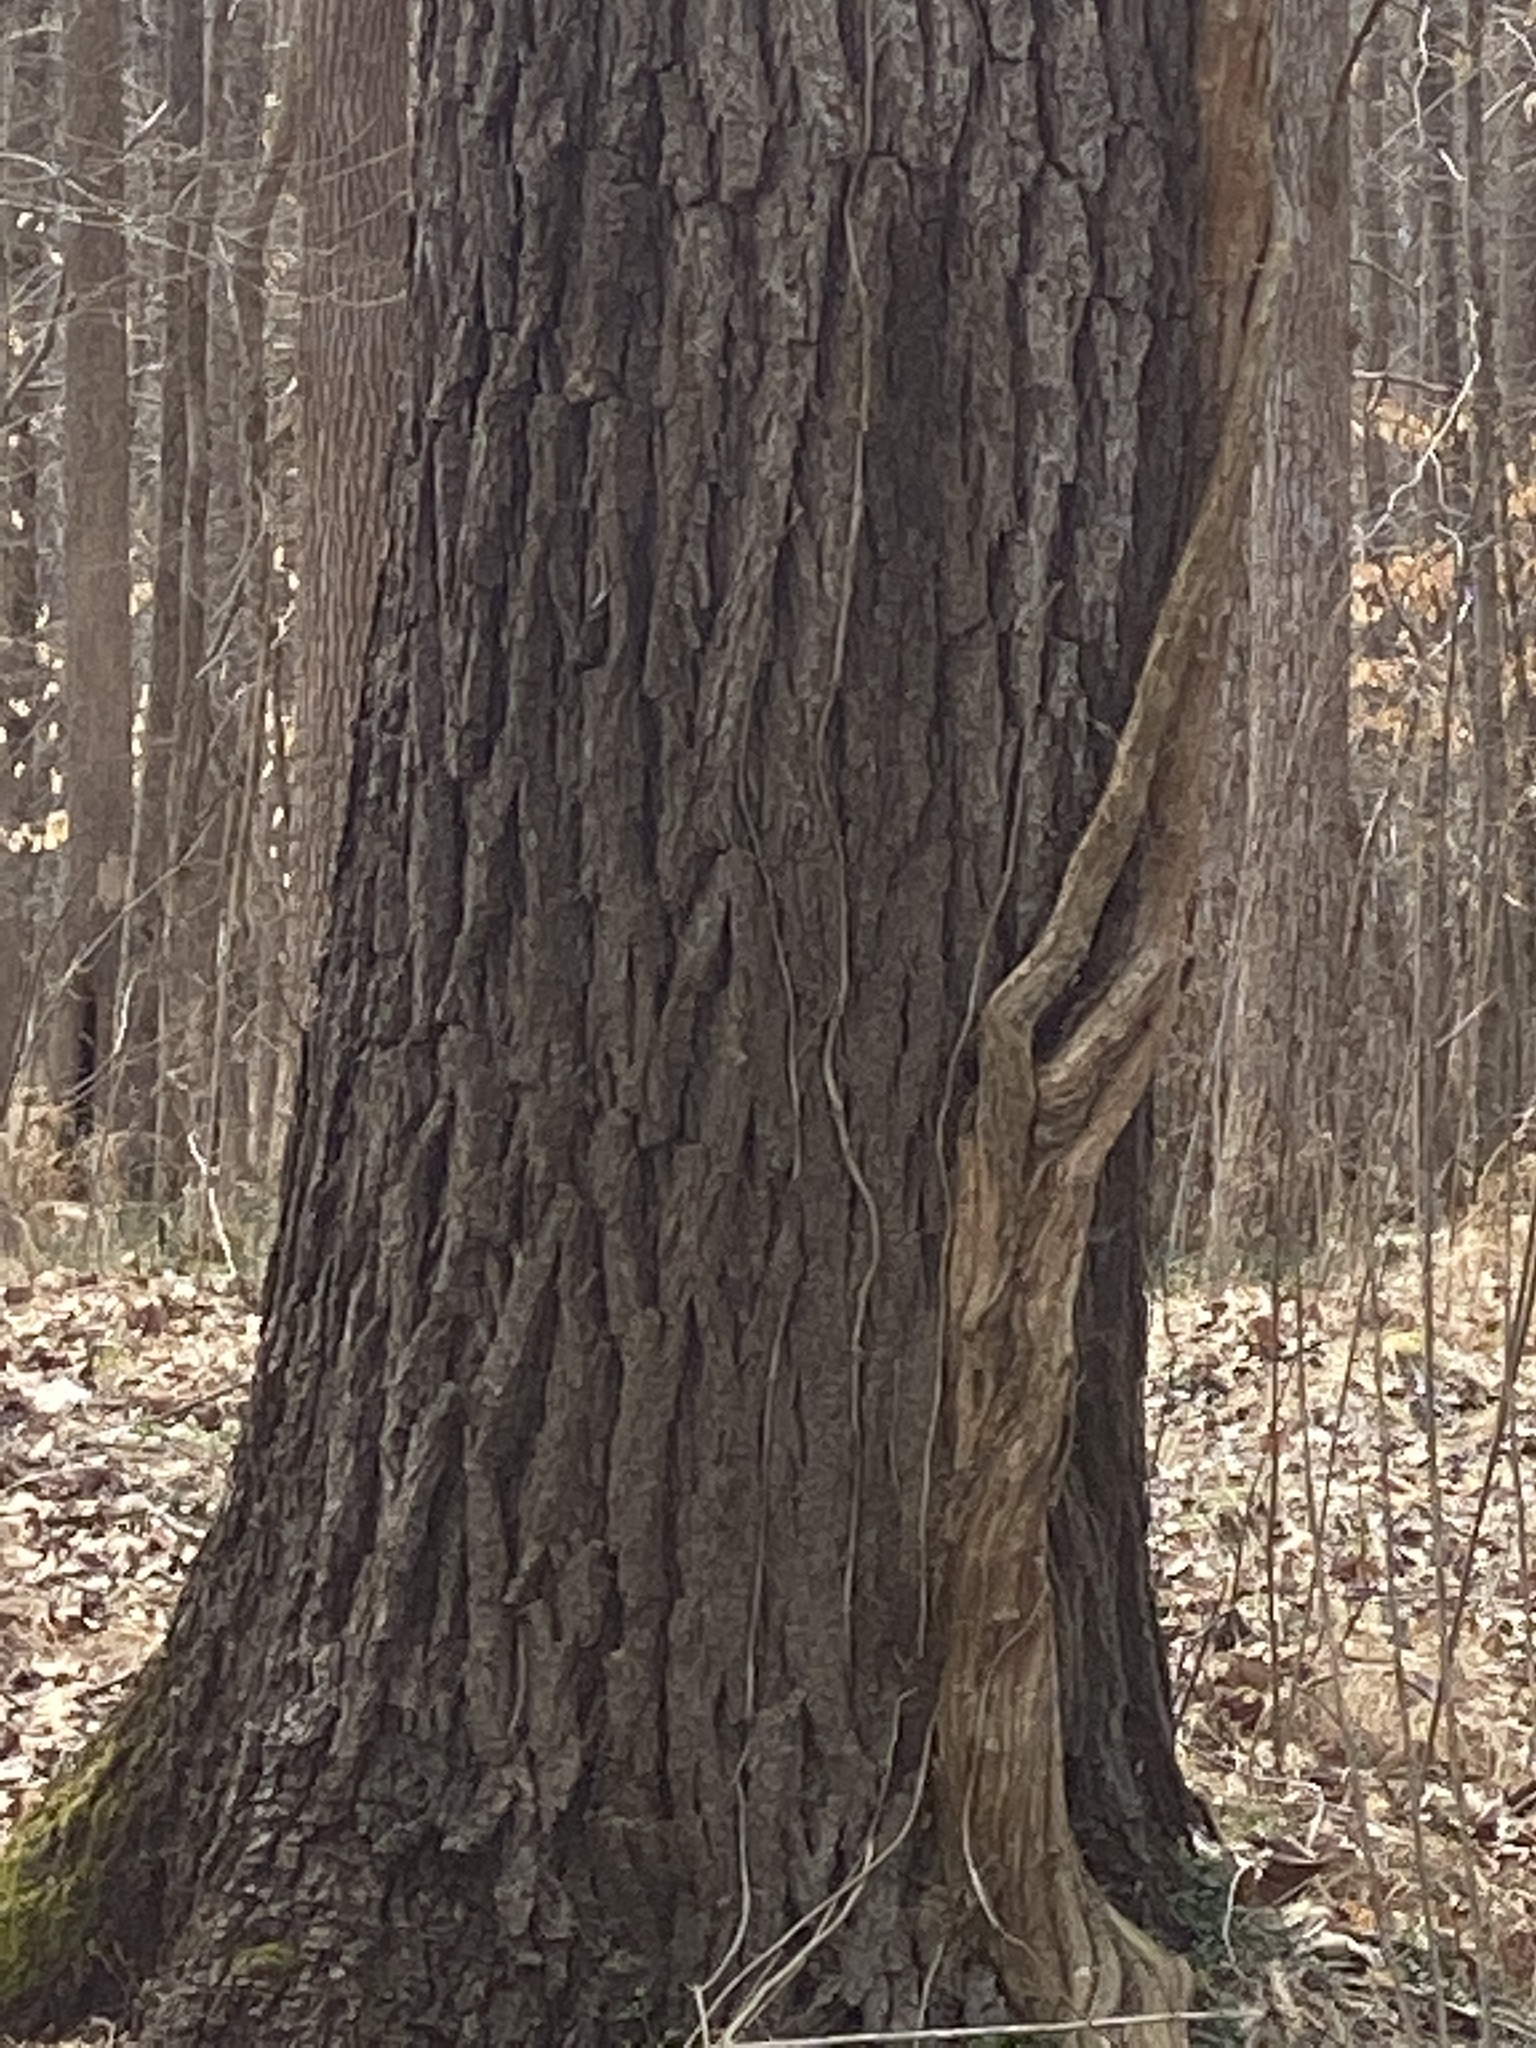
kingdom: Plantae
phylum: Tracheophyta
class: Magnoliopsida
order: Lamiales
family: Bignoniaceae
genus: Campsis
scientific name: Campsis radicans
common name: Trumpet-creeper
